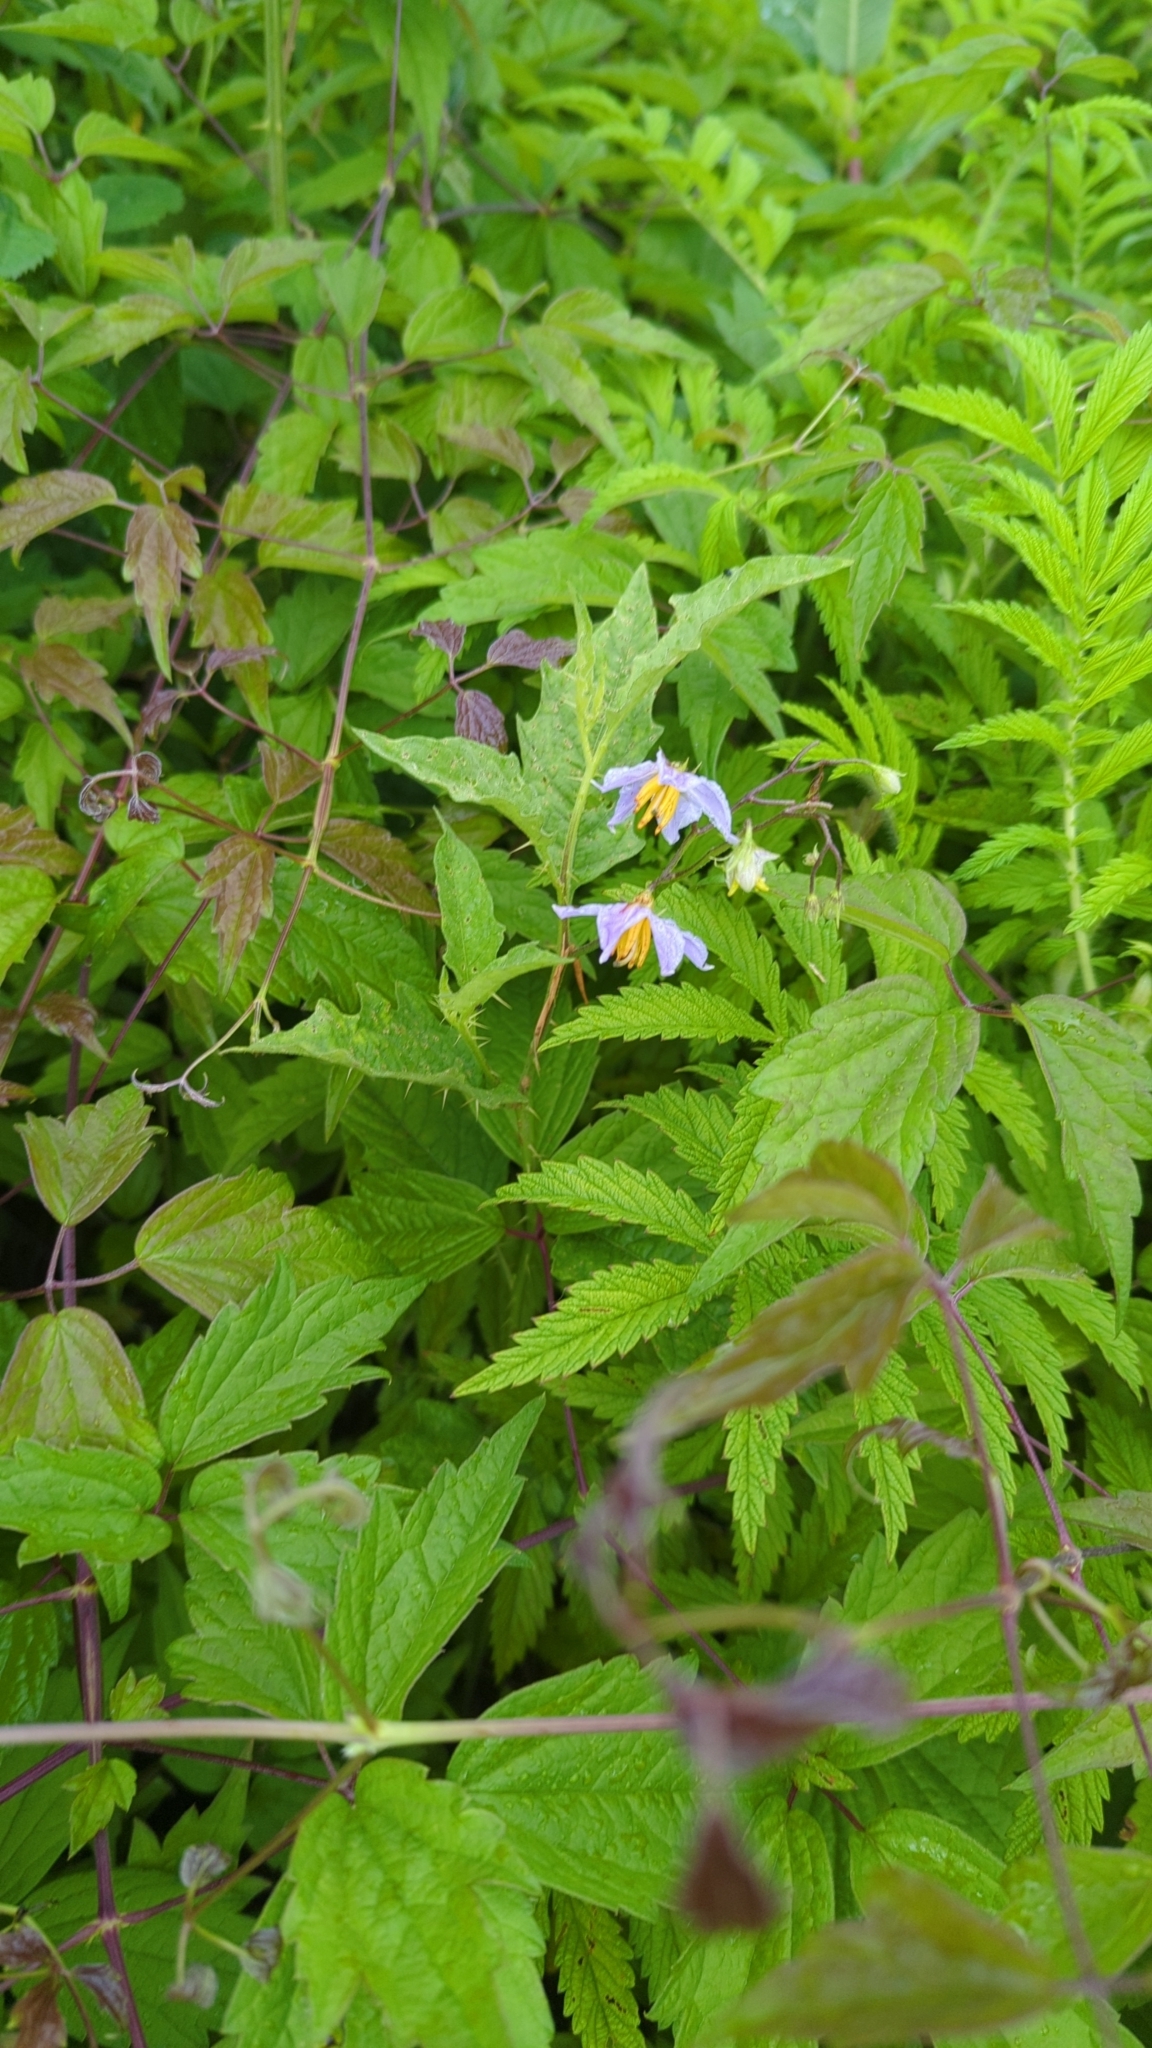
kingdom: Plantae
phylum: Tracheophyta
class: Magnoliopsida
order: Solanales
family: Solanaceae
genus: Solanum
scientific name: Solanum carolinense
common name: Horse-nettle
